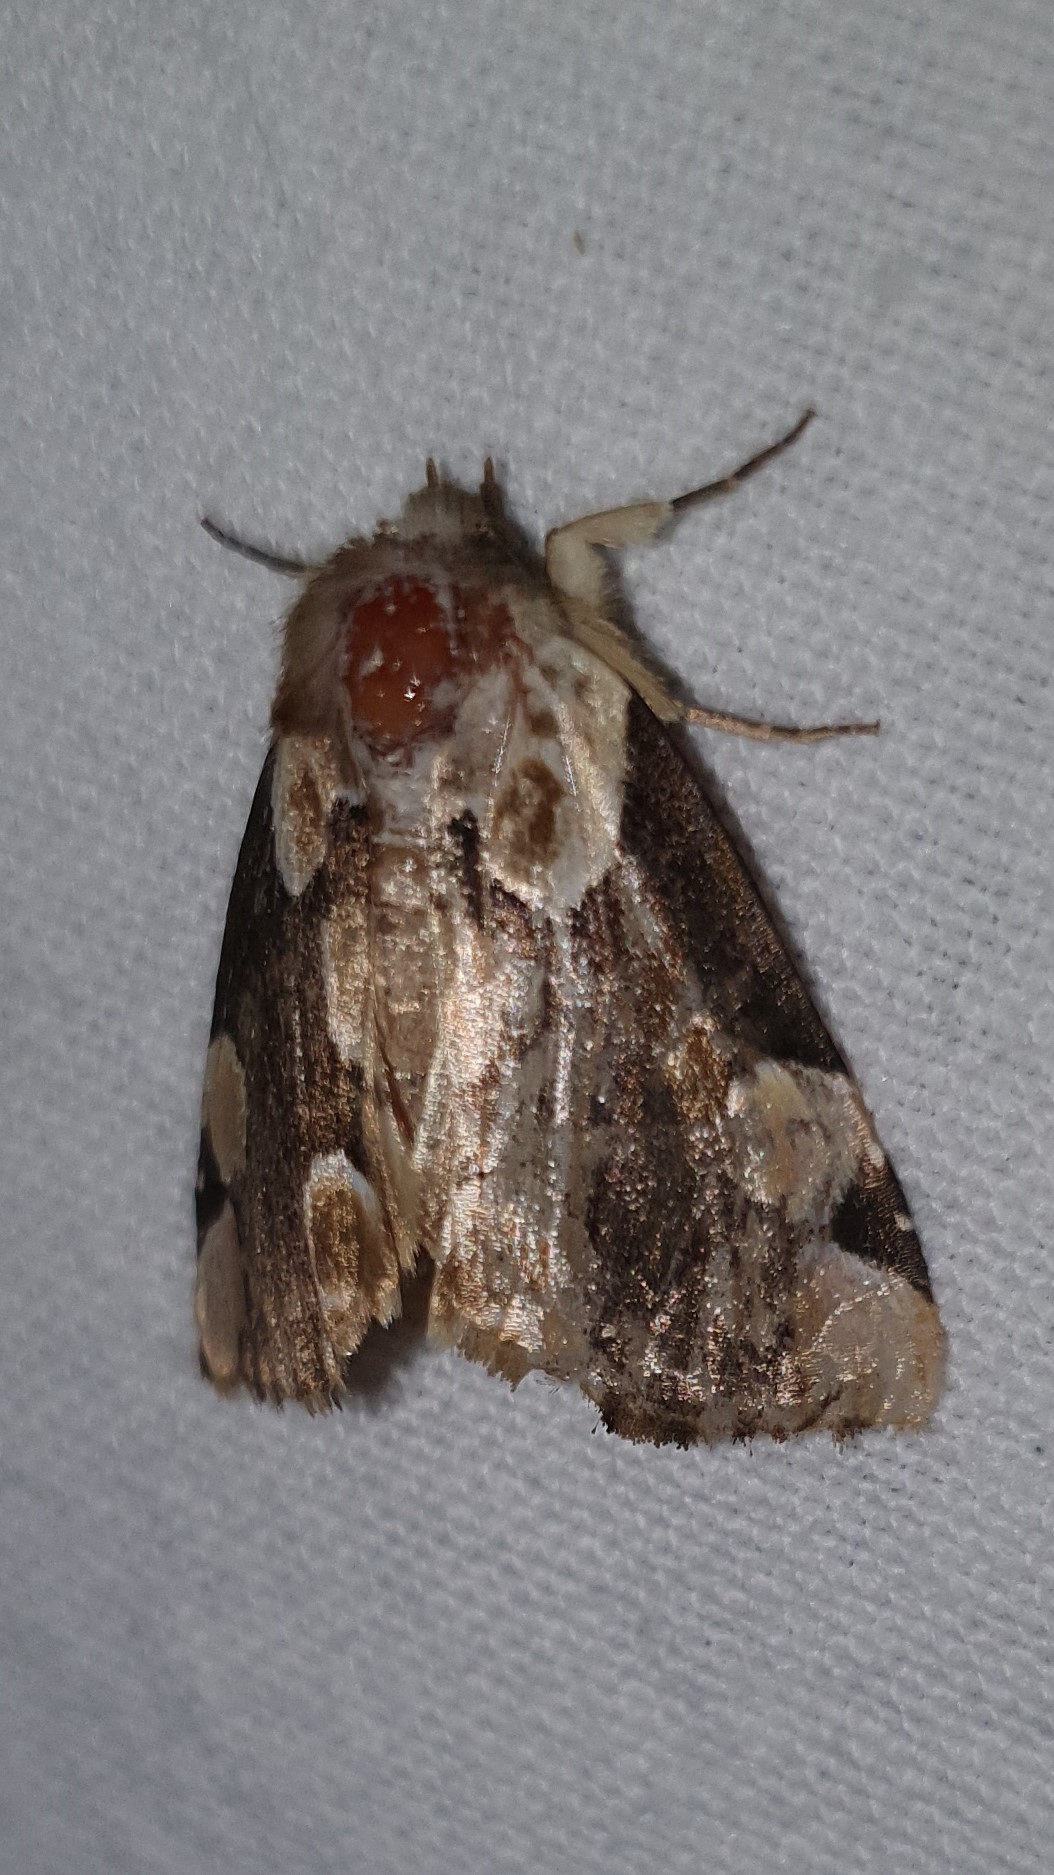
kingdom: Animalia
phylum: Arthropoda
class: Insecta
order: Lepidoptera
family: Drepanidae
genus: Thyatira
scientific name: Thyatira batis
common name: Peach blossom
